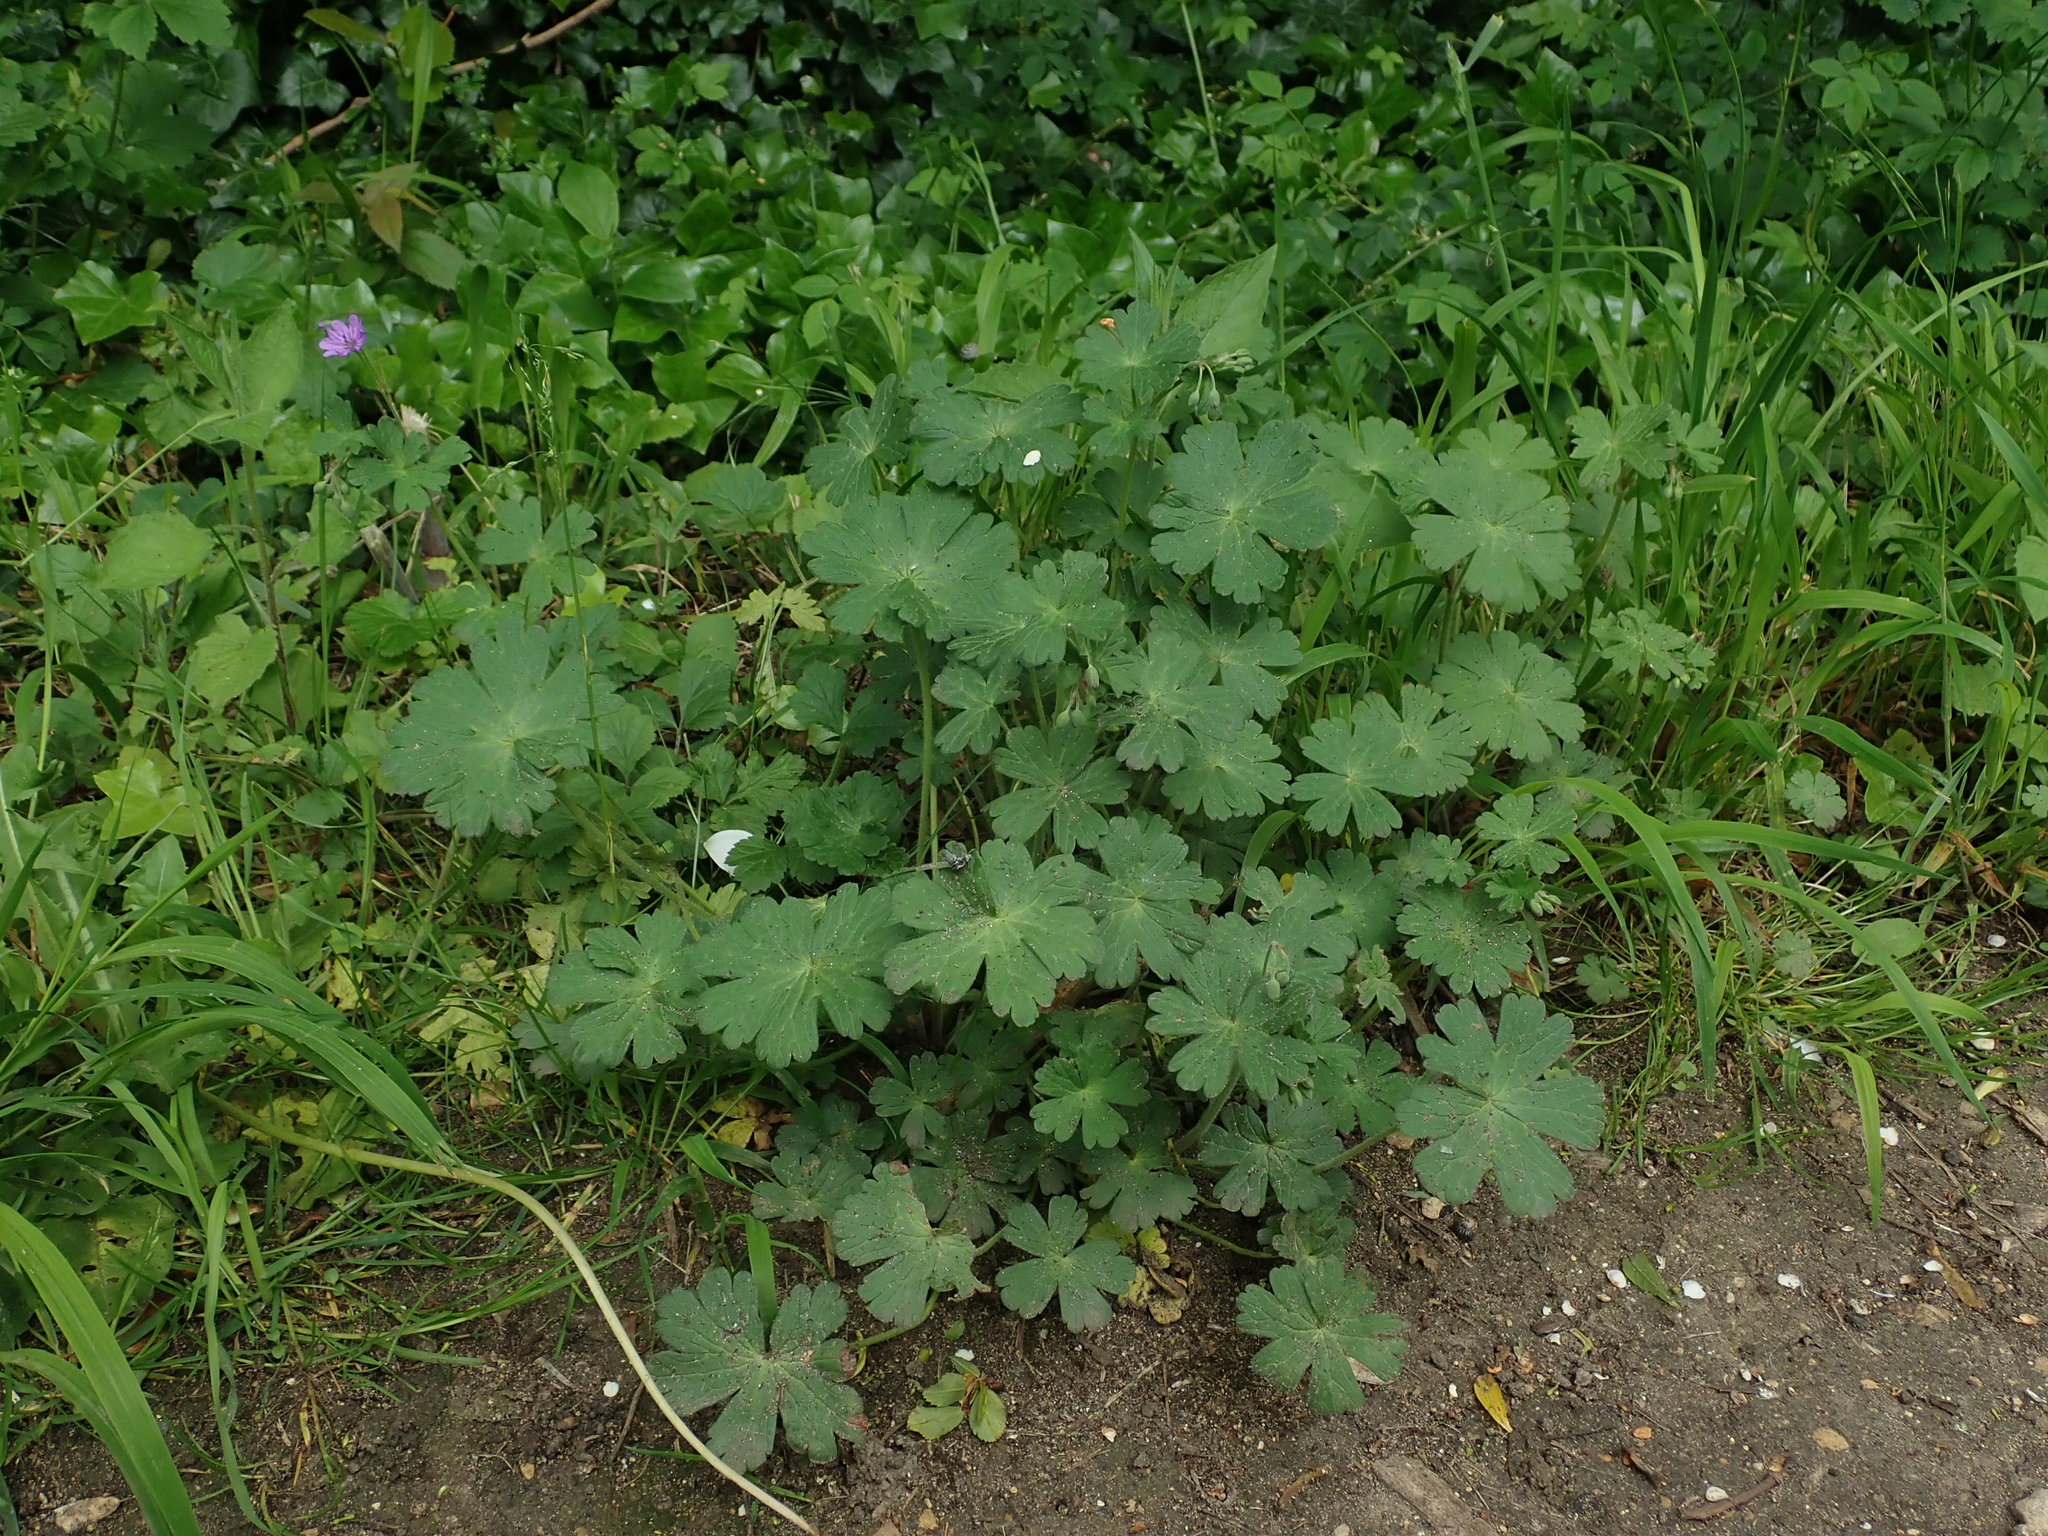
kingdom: Plantae
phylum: Tracheophyta
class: Magnoliopsida
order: Geraniales
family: Geraniaceae
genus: Geranium
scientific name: Geranium pyrenaicum
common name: Hedgerow crane's-bill
